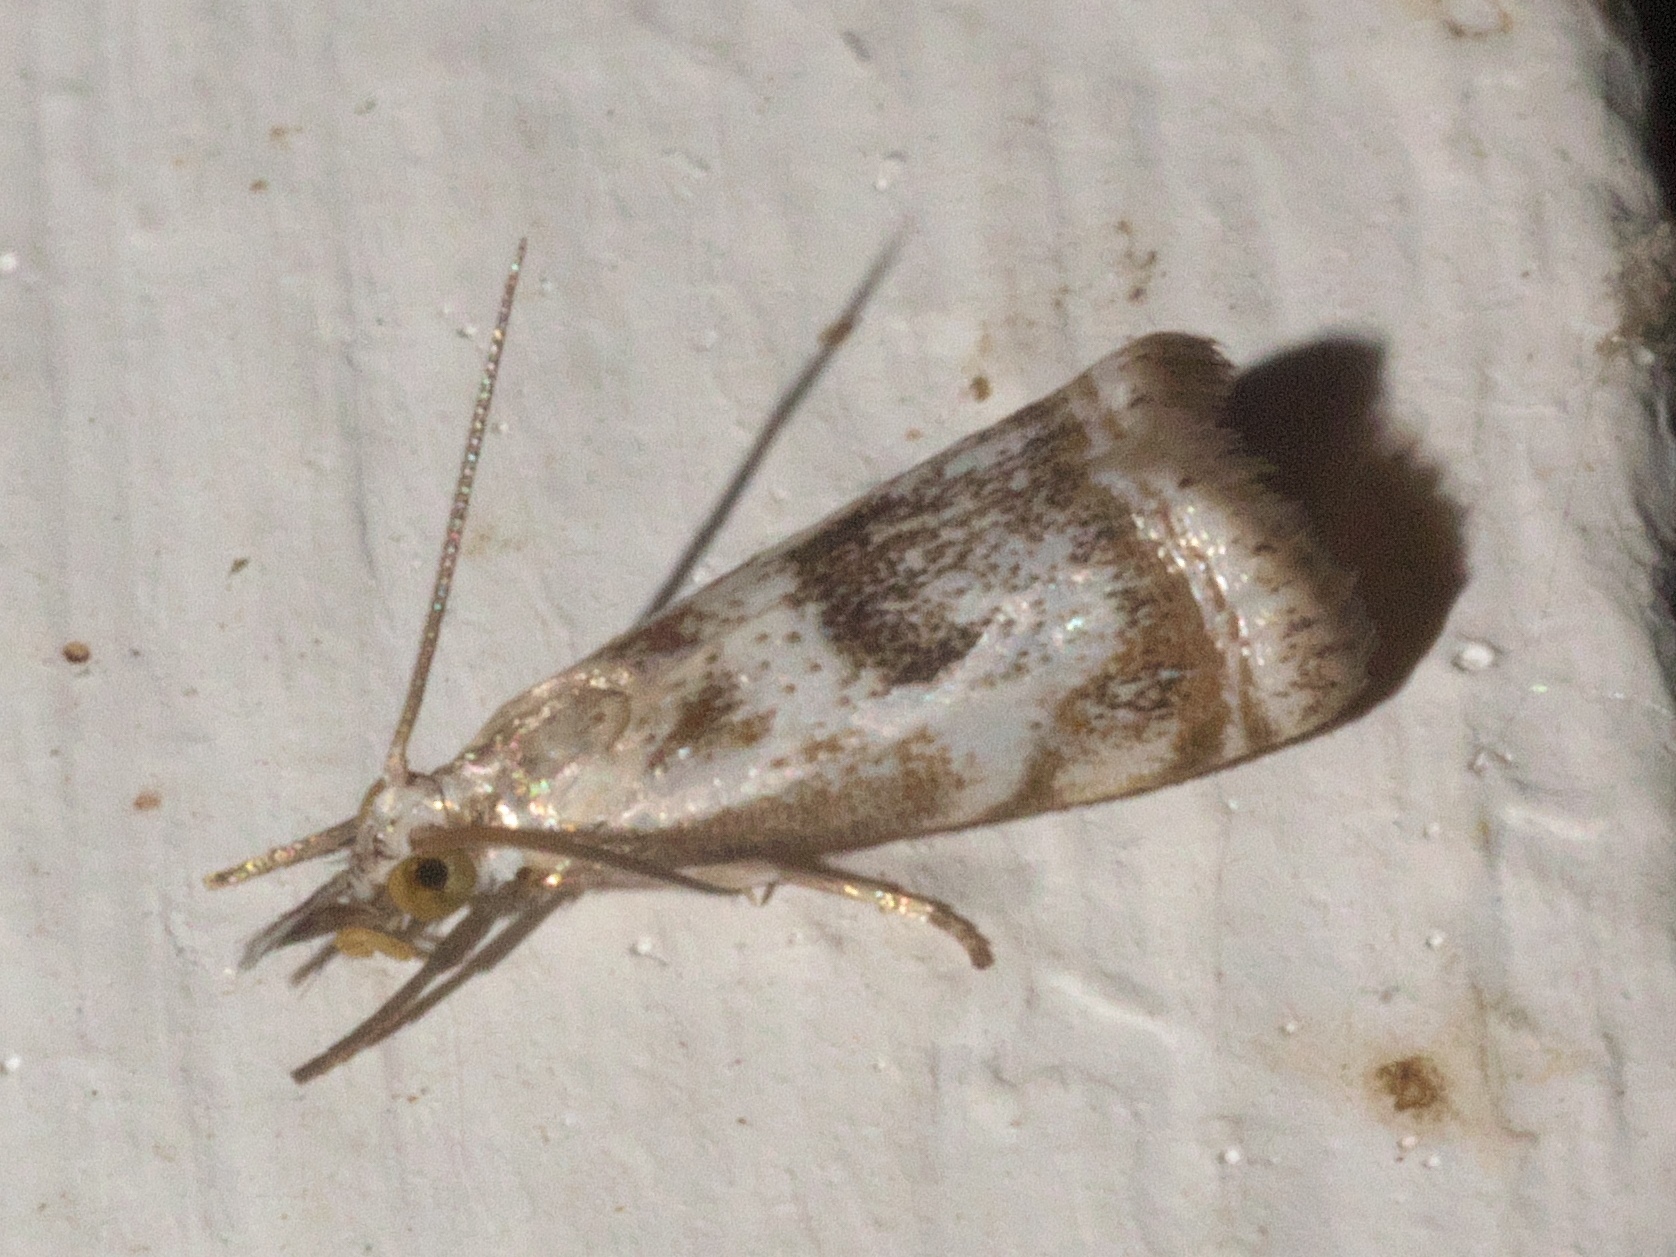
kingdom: Animalia
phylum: Arthropoda
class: Insecta
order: Lepidoptera
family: Crambidae
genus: Microcrambus
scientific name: Microcrambus elegans
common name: Elegant grass-veneer
